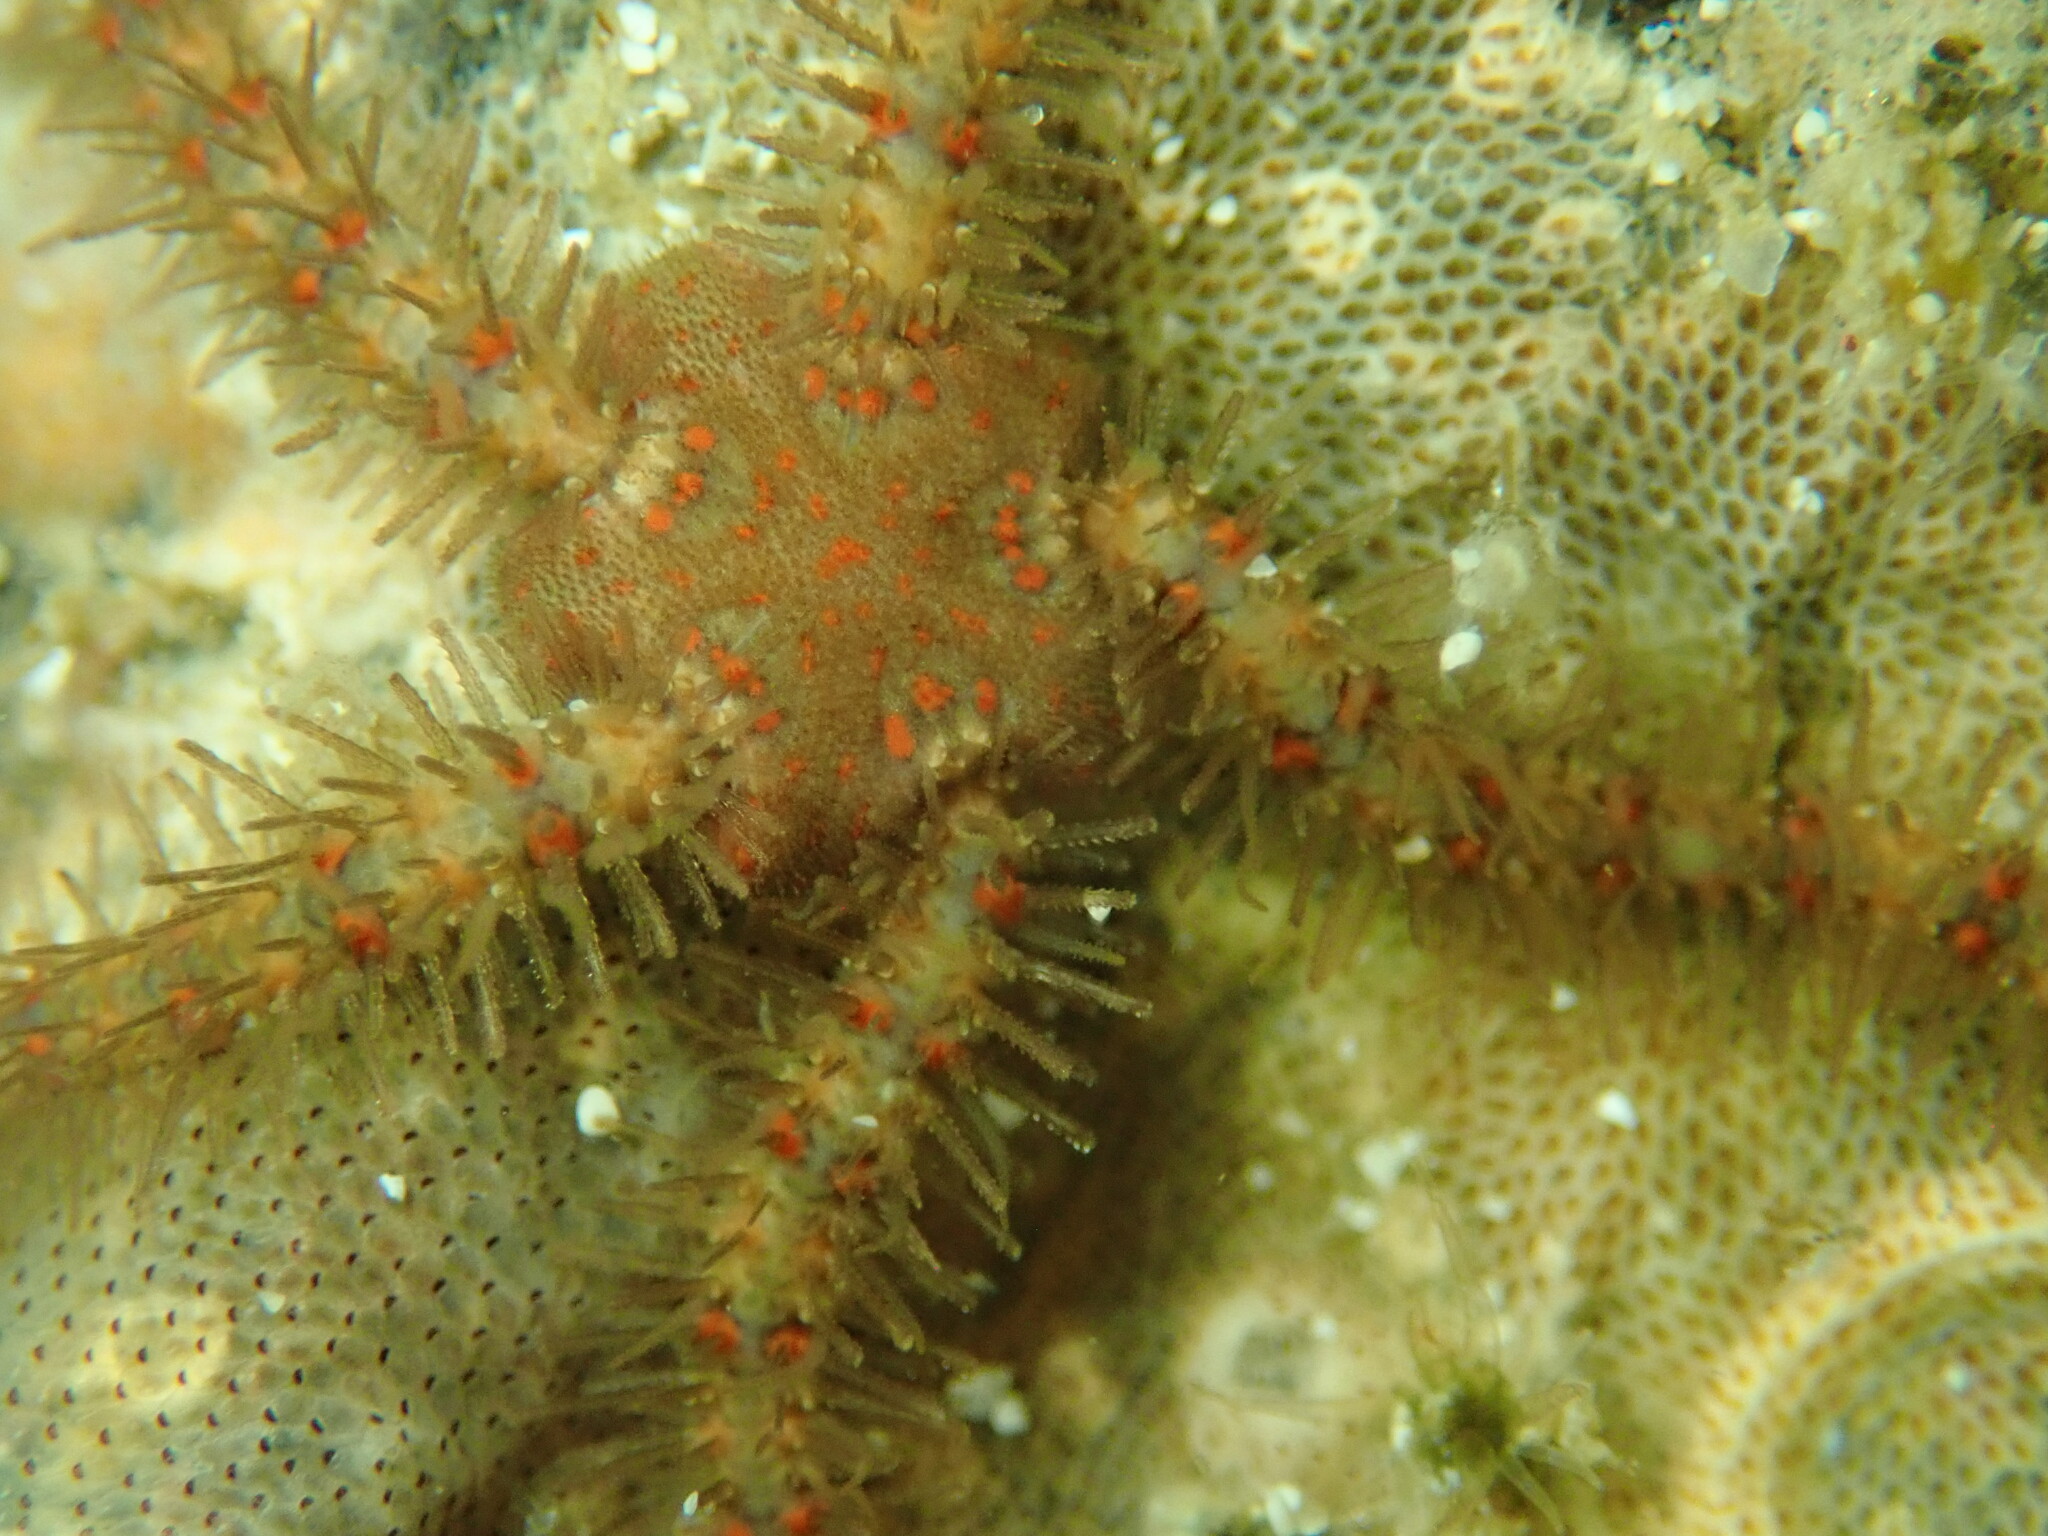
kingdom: Animalia
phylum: Echinodermata
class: Ophiuroidea
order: Amphilepidida
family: Ophiotrichidae
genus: Ophiothrix
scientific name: Ophiothrix spiculata
